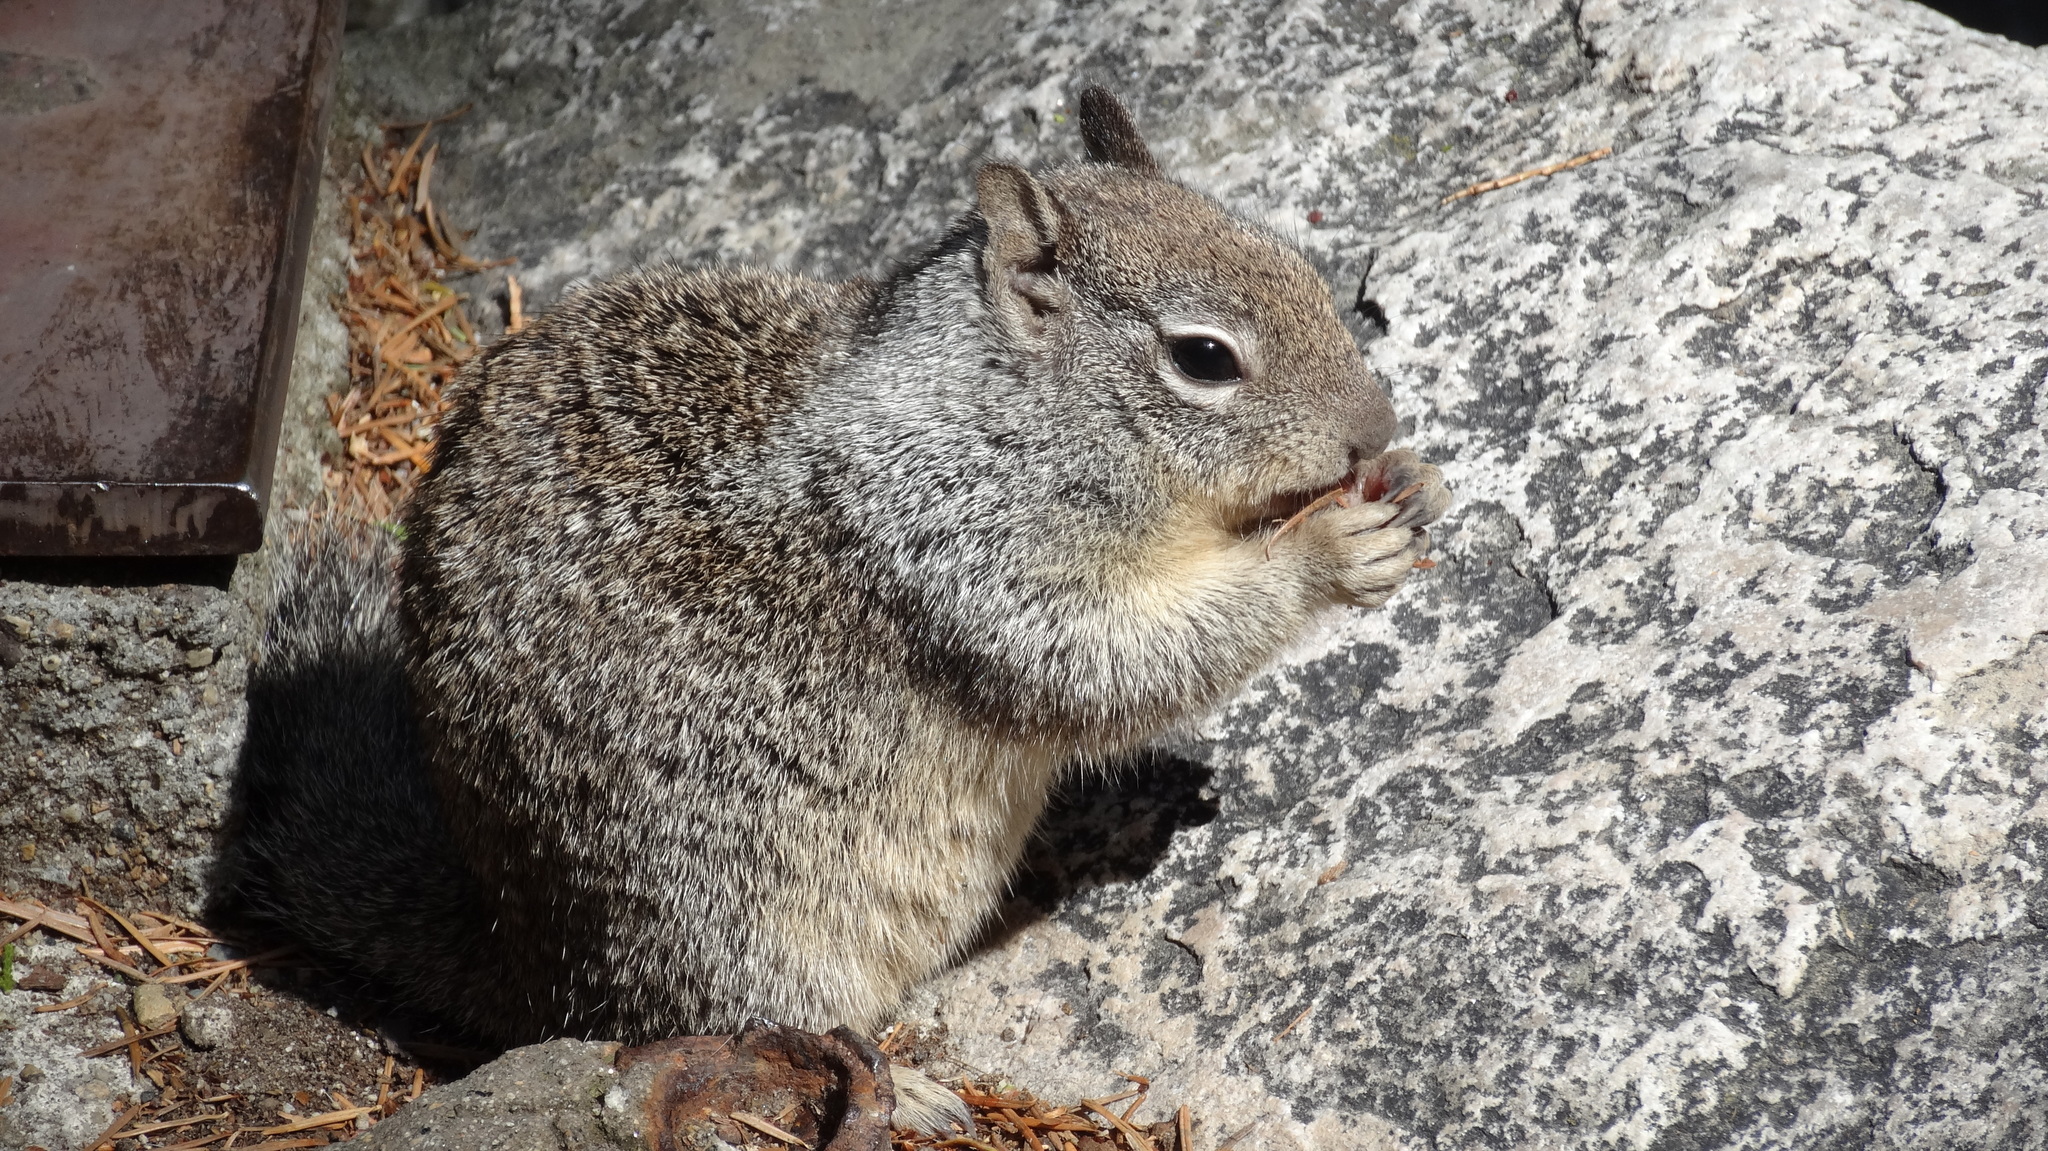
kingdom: Animalia
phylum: Chordata
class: Mammalia
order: Rodentia
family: Sciuridae
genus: Otospermophilus
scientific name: Otospermophilus beecheyi
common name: California ground squirrel
